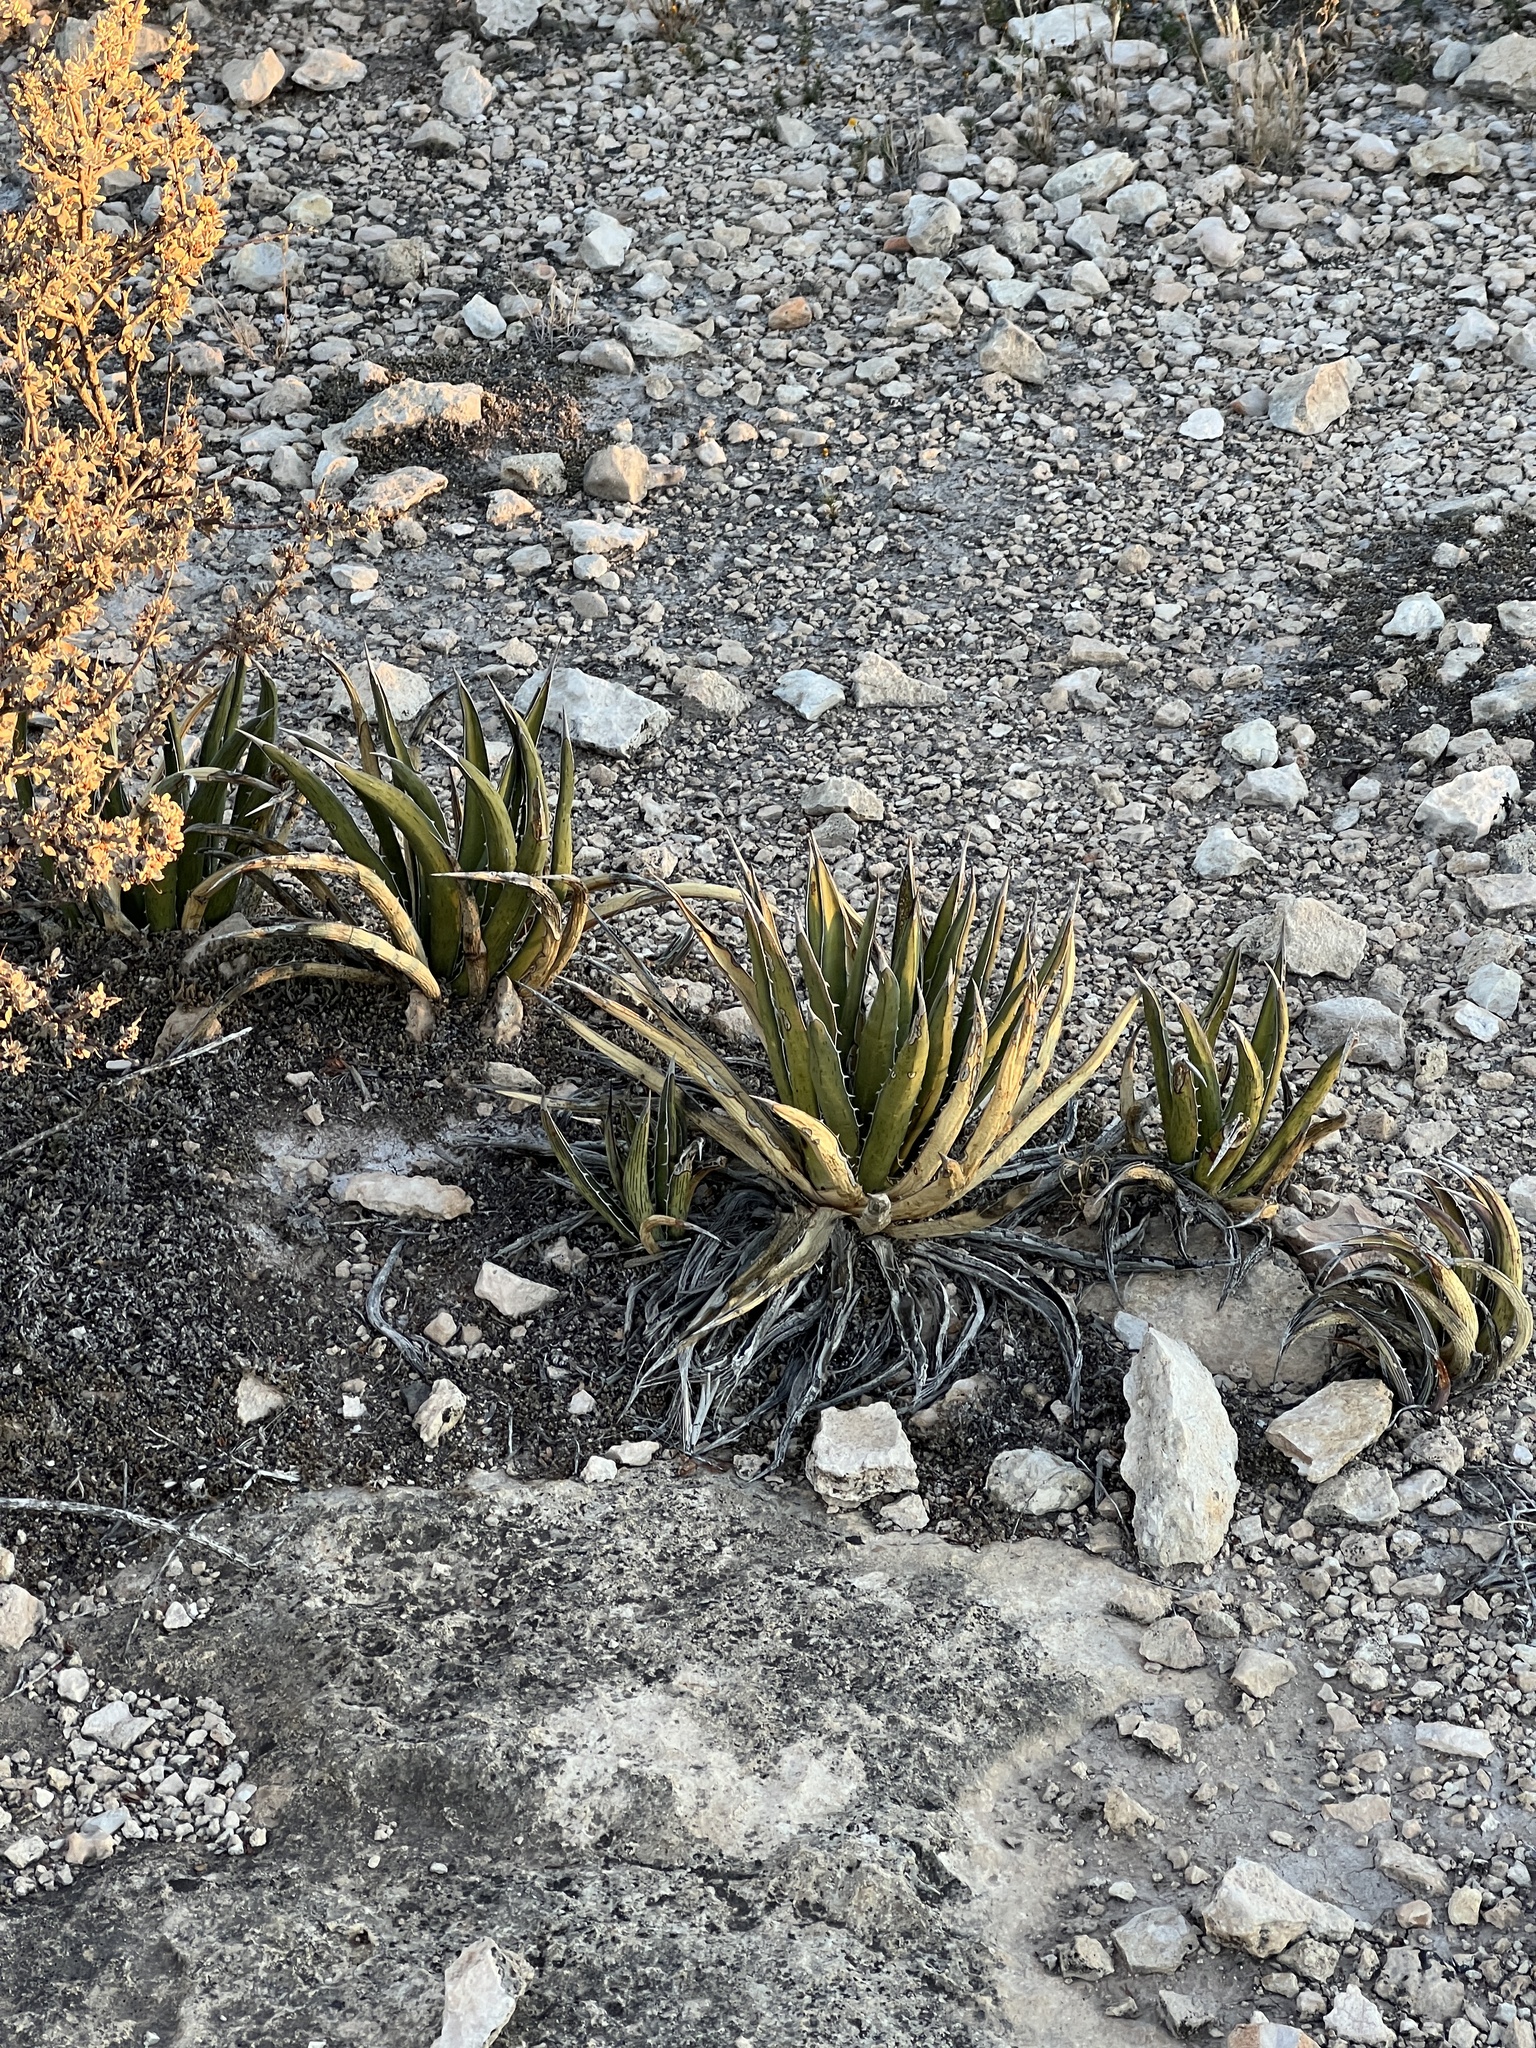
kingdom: Plantae
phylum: Tracheophyta
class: Liliopsida
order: Asparagales
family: Asparagaceae
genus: Agave
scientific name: Agave lechuguilla
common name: Lecheguilla agave
